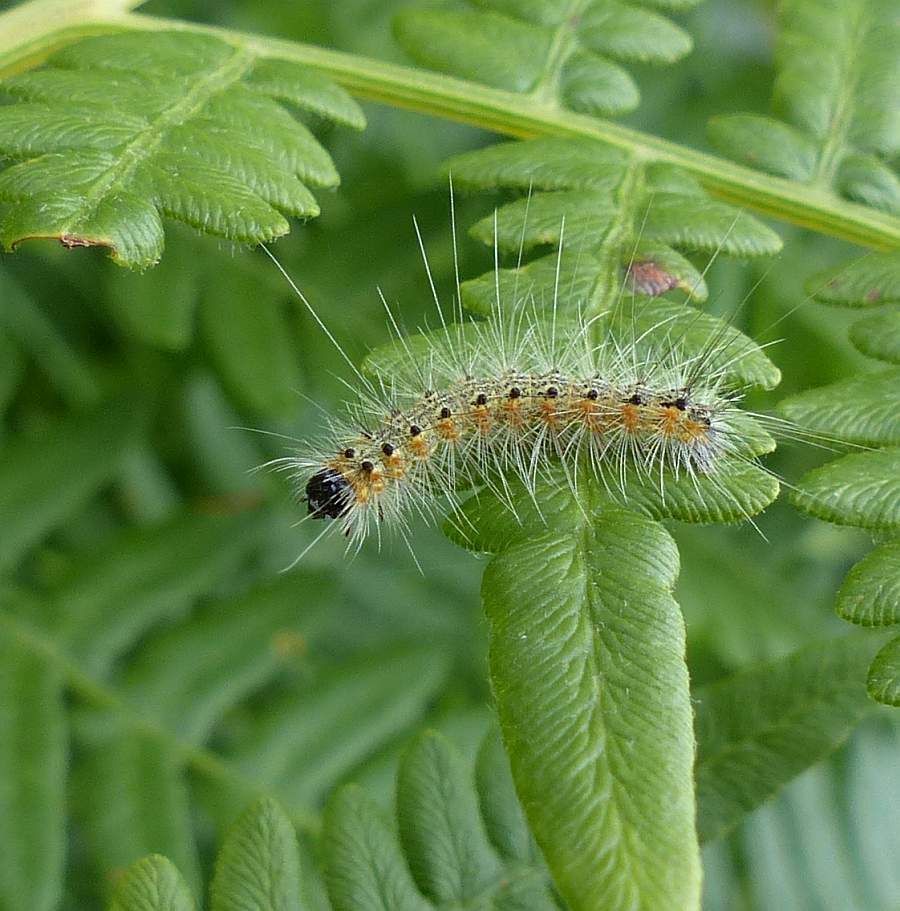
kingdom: Animalia
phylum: Arthropoda
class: Insecta
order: Lepidoptera
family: Erebidae
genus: Hyphantria
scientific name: Hyphantria cunea
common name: American white moth
